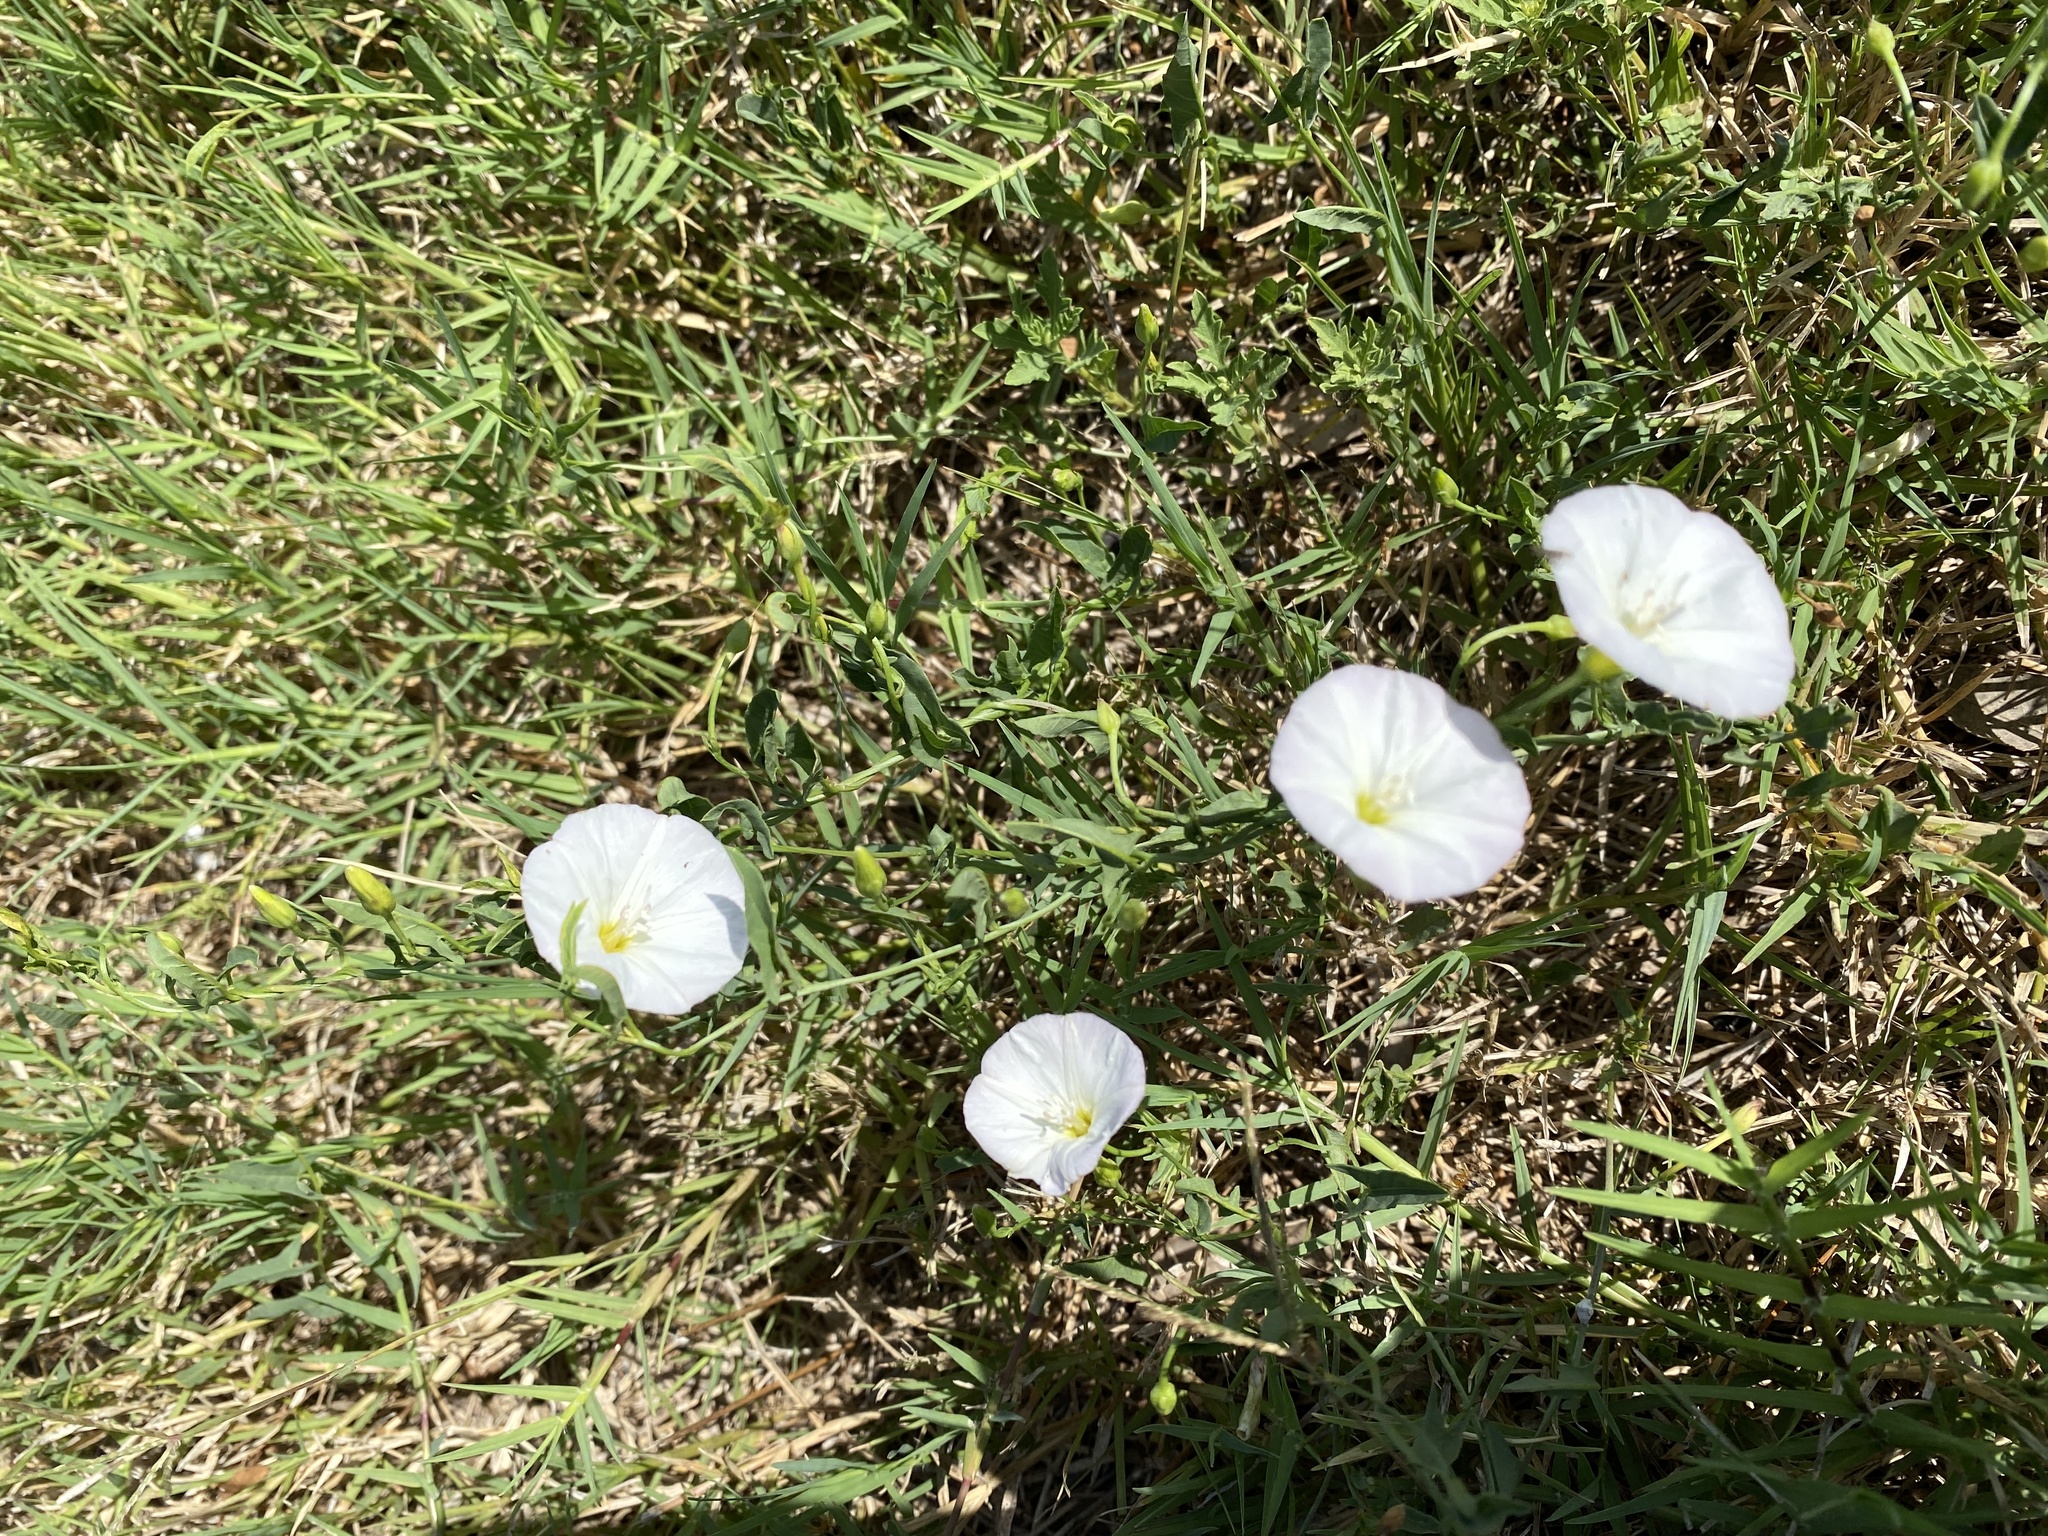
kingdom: Plantae
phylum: Tracheophyta
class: Magnoliopsida
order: Solanales
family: Convolvulaceae
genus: Convolvulus
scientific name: Convolvulus arvensis
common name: Field bindweed
